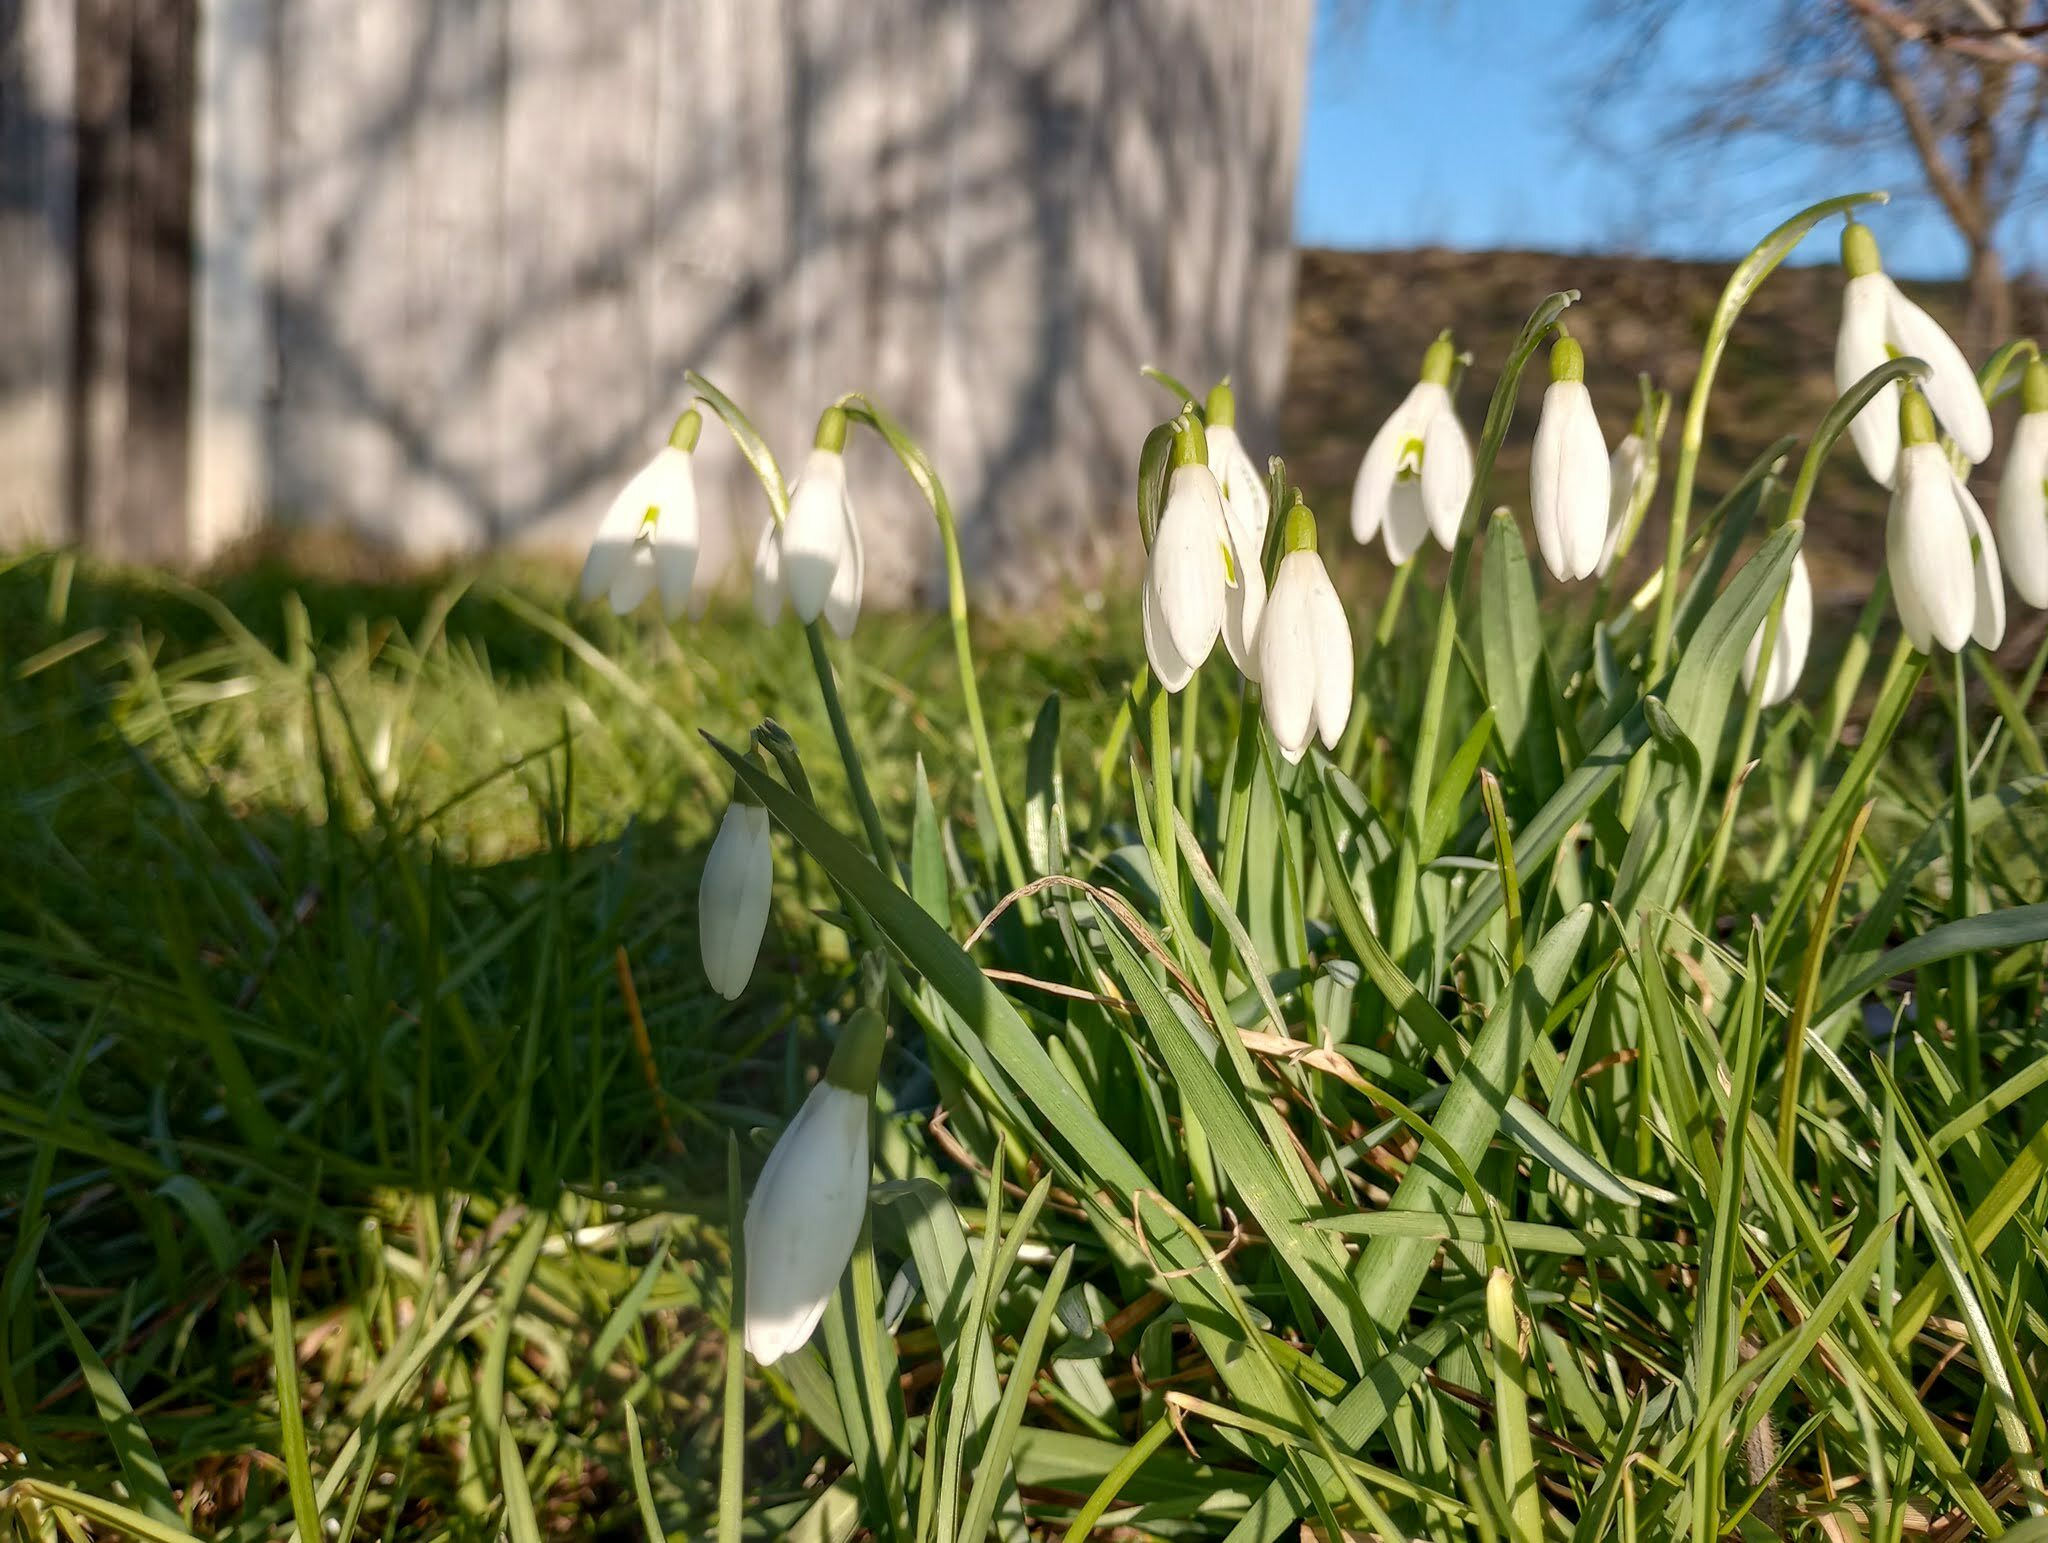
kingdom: Plantae
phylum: Tracheophyta
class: Liliopsida
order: Asparagales
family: Amaryllidaceae
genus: Galanthus
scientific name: Galanthus nivalis
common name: Snowdrop
